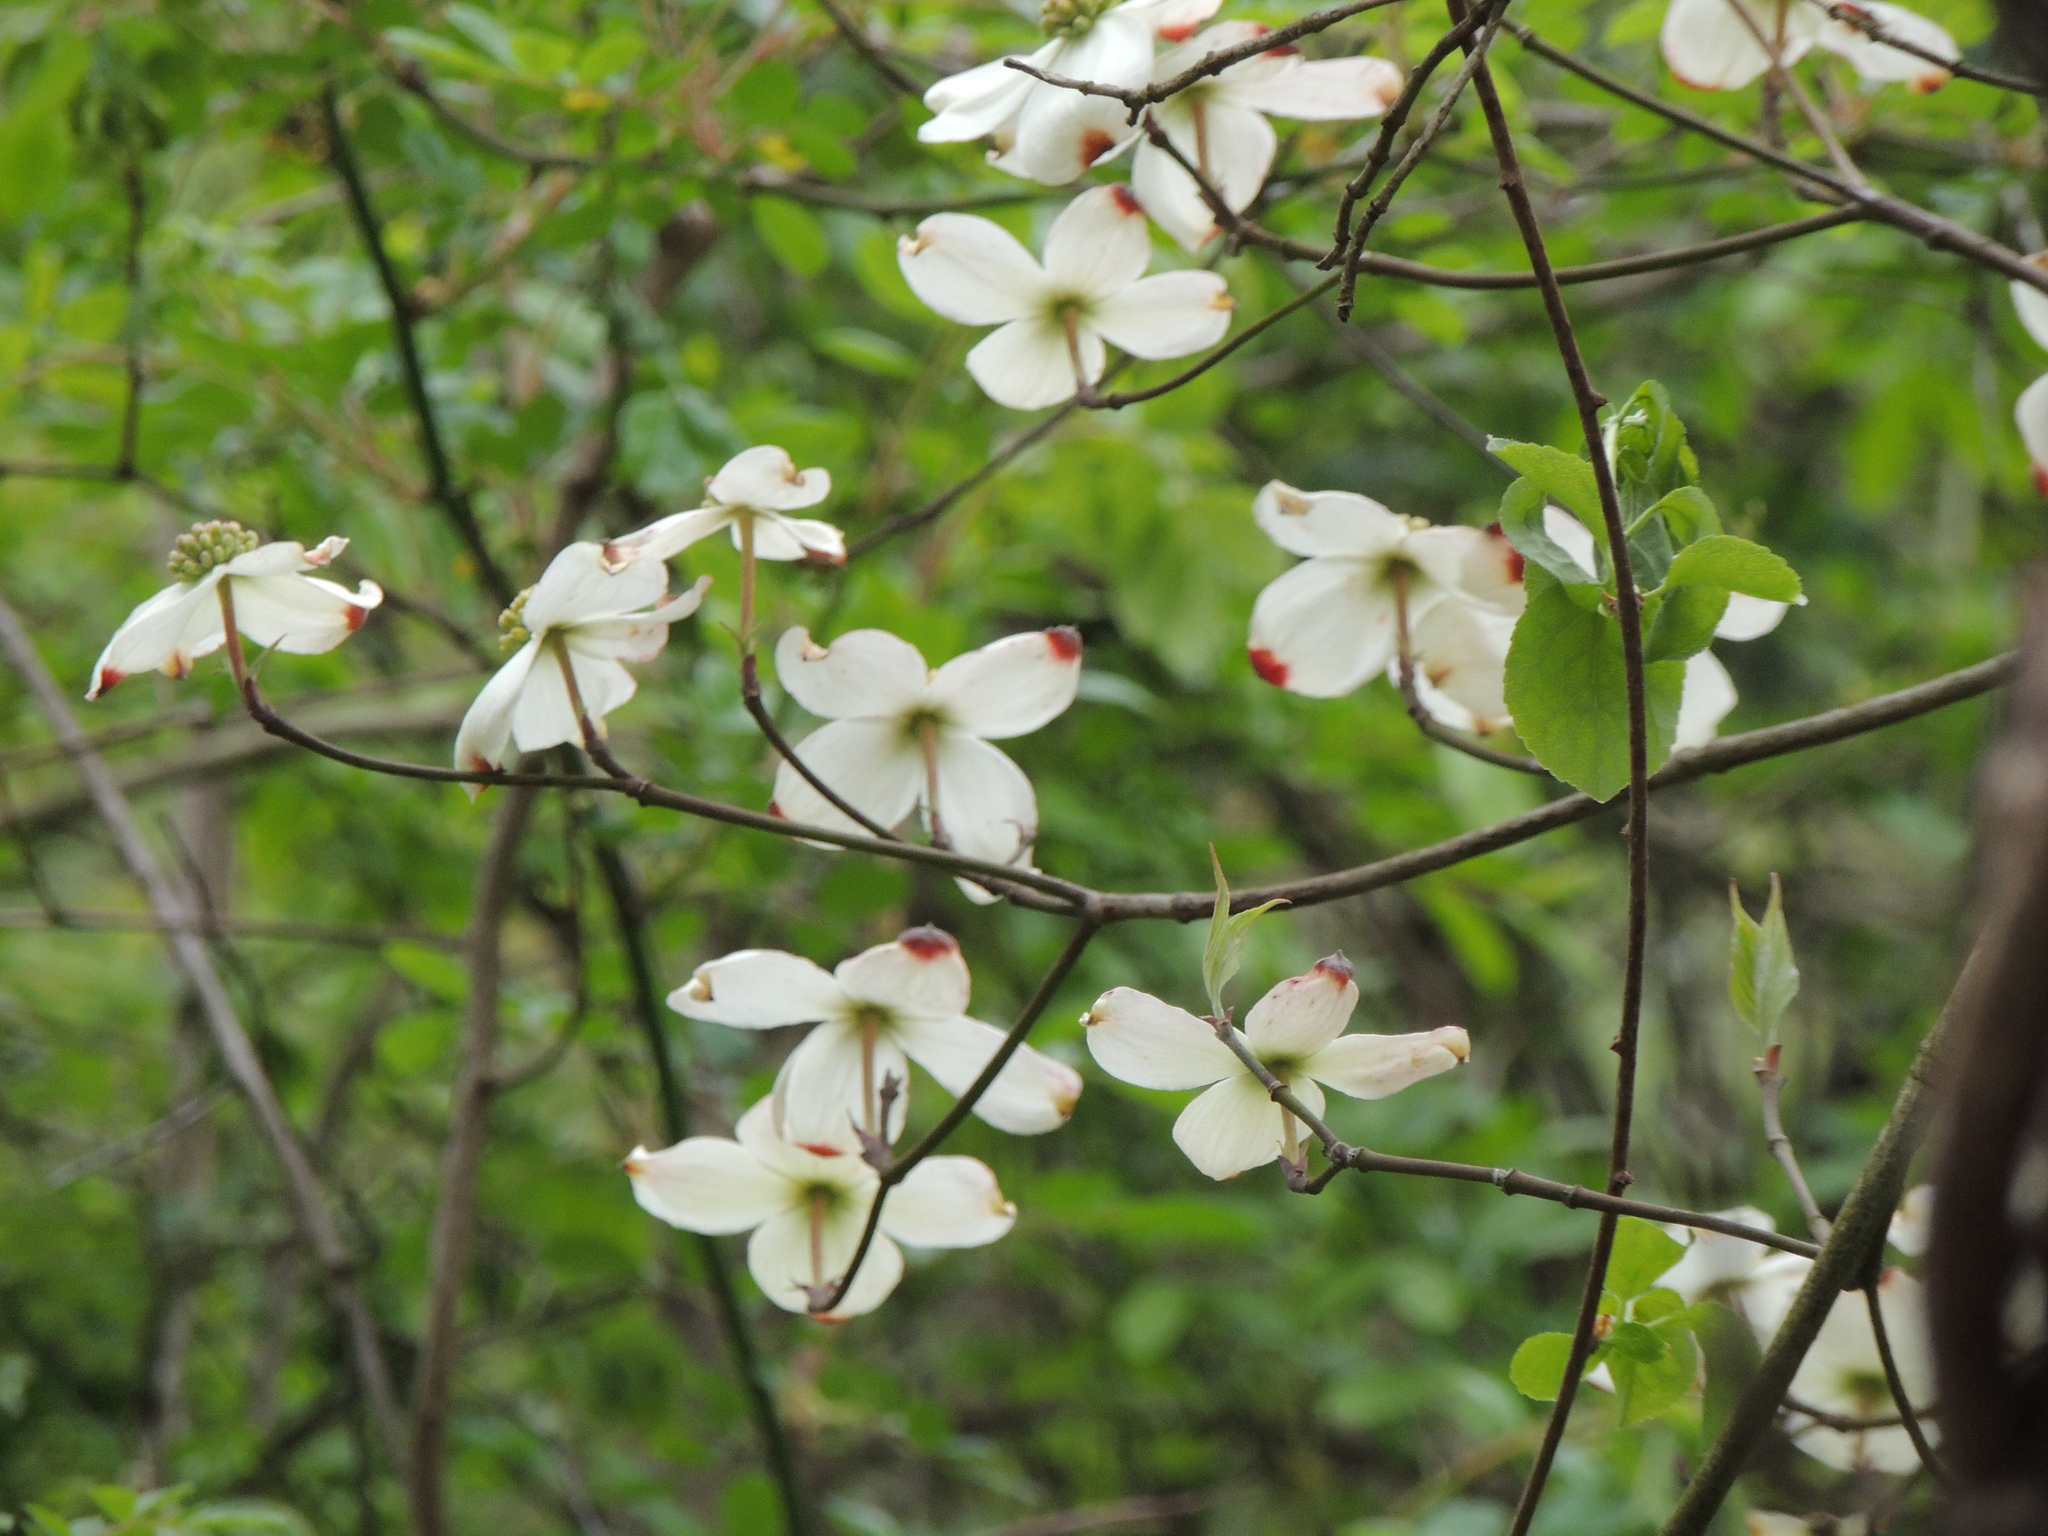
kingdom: Plantae
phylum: Tracheophyta
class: Magnoliopsida
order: Cornales
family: Cornaceae
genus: Cornus
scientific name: Cornus florida
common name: Flowering dogwood
